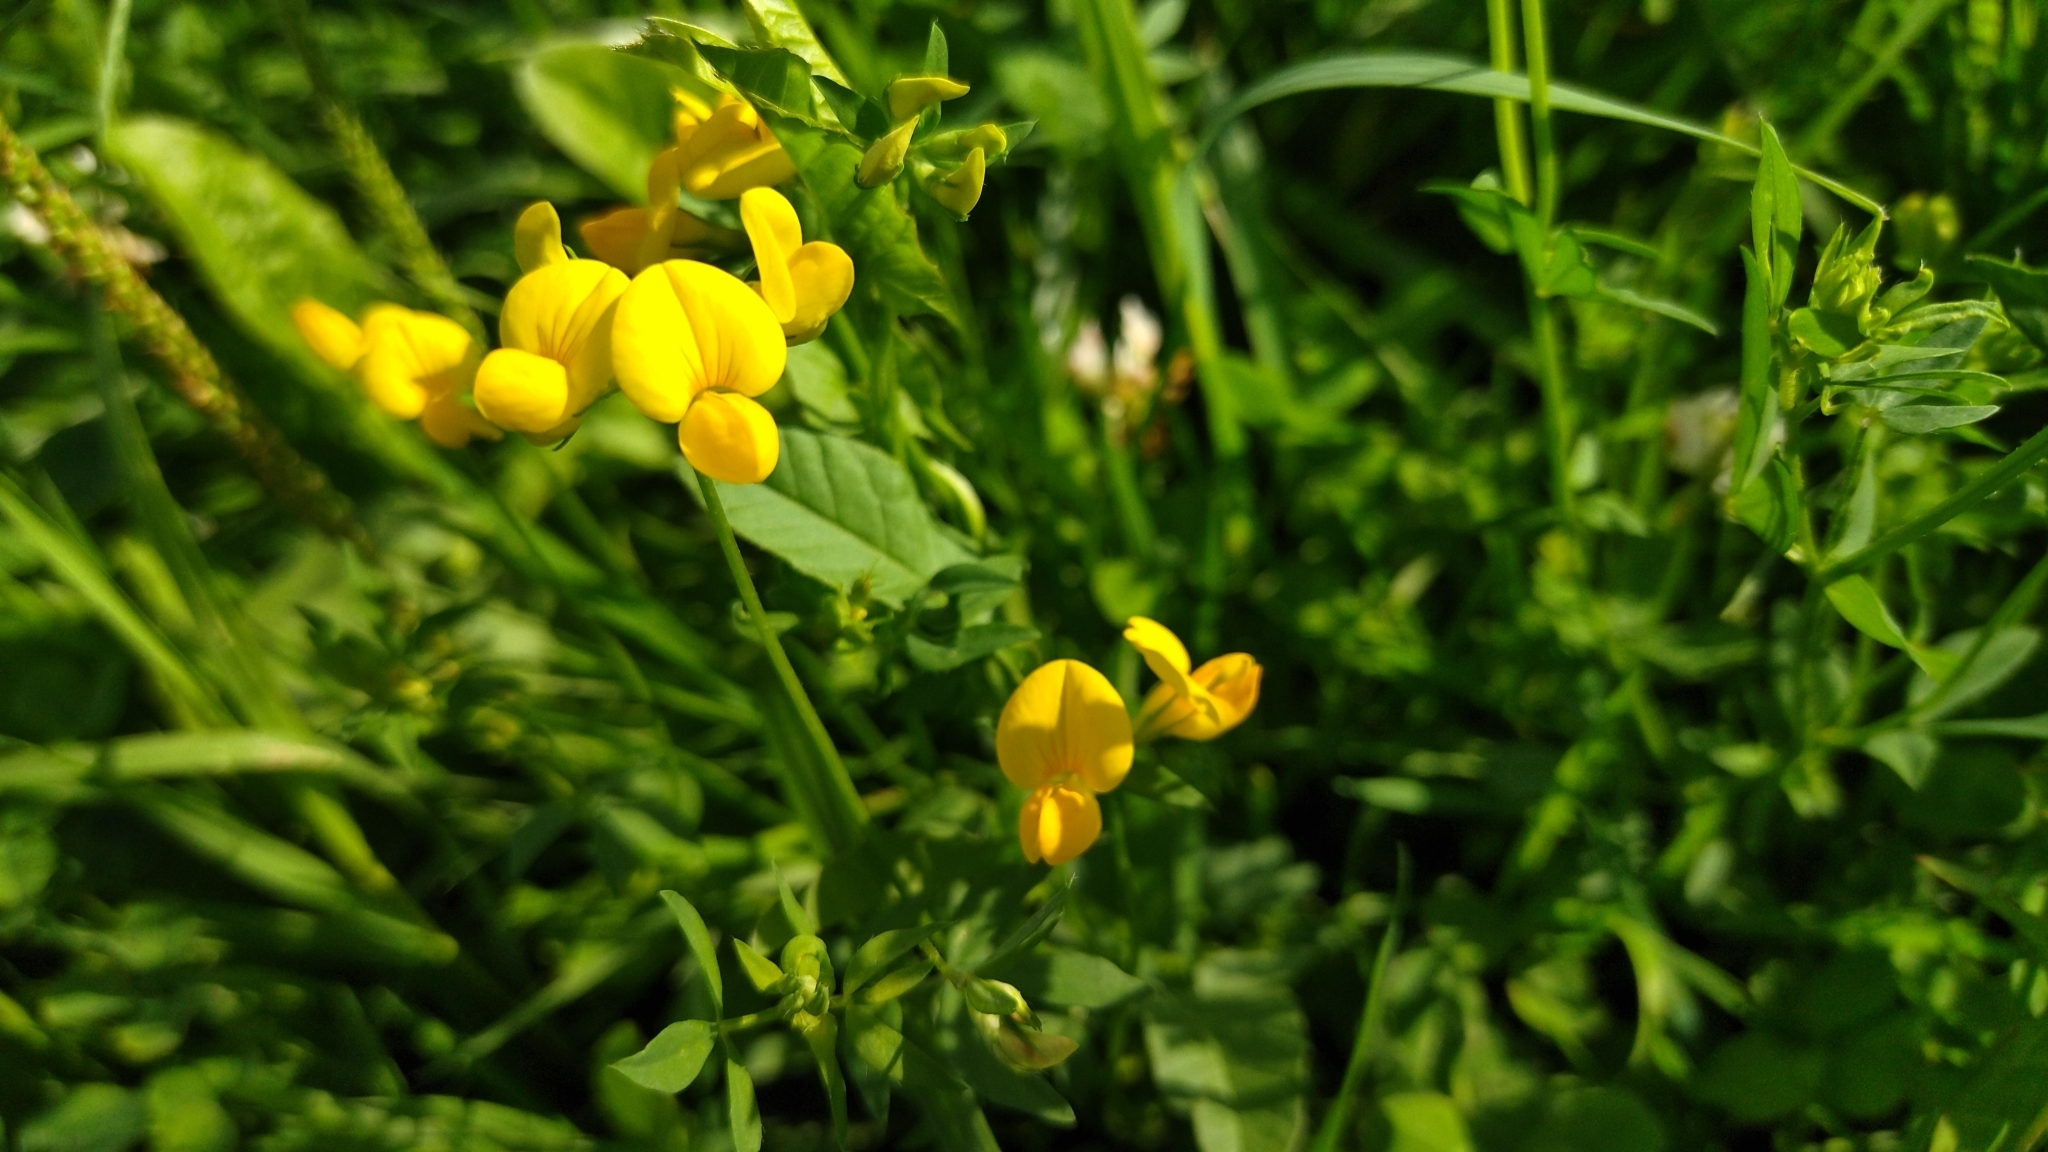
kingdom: Plantae
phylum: Tracheophyta
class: Magnoliopsida
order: Fabales
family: Fabaceae
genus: Lotus
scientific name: Lotus corniculatus
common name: Common bird's-foot-trefoil
